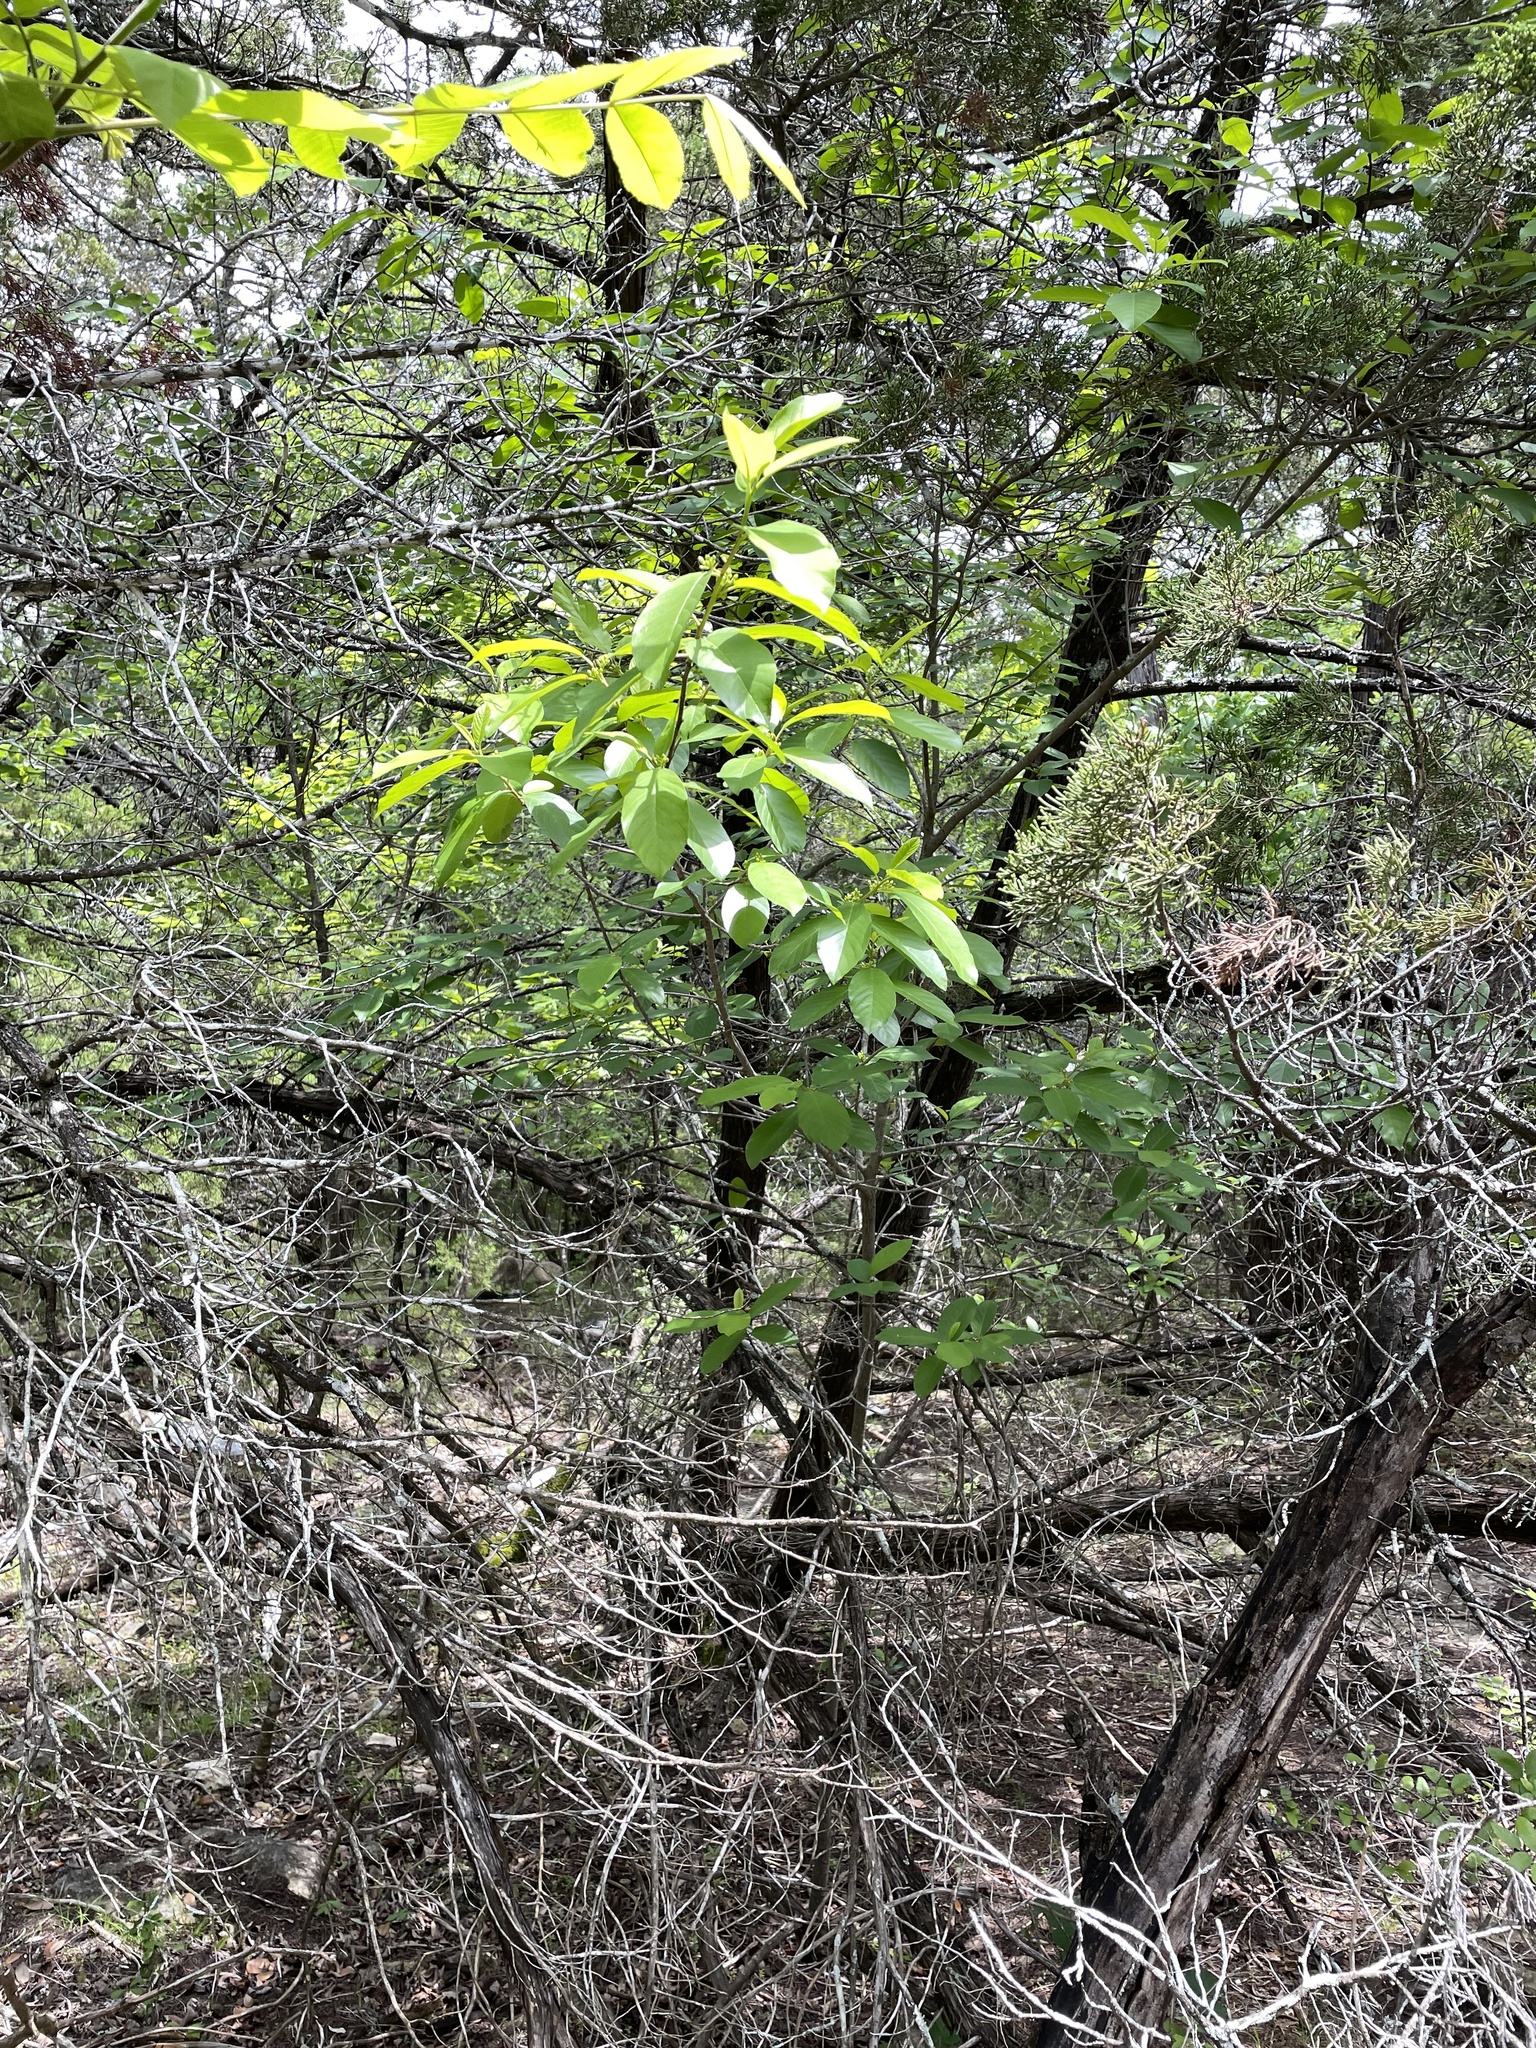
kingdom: Plantae
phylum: Tracheophyta
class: Magnoliopsida
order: Rosales
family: Rhamnaceae
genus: Frangula
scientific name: Frangula caroliniana
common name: Carolina buckthorn
